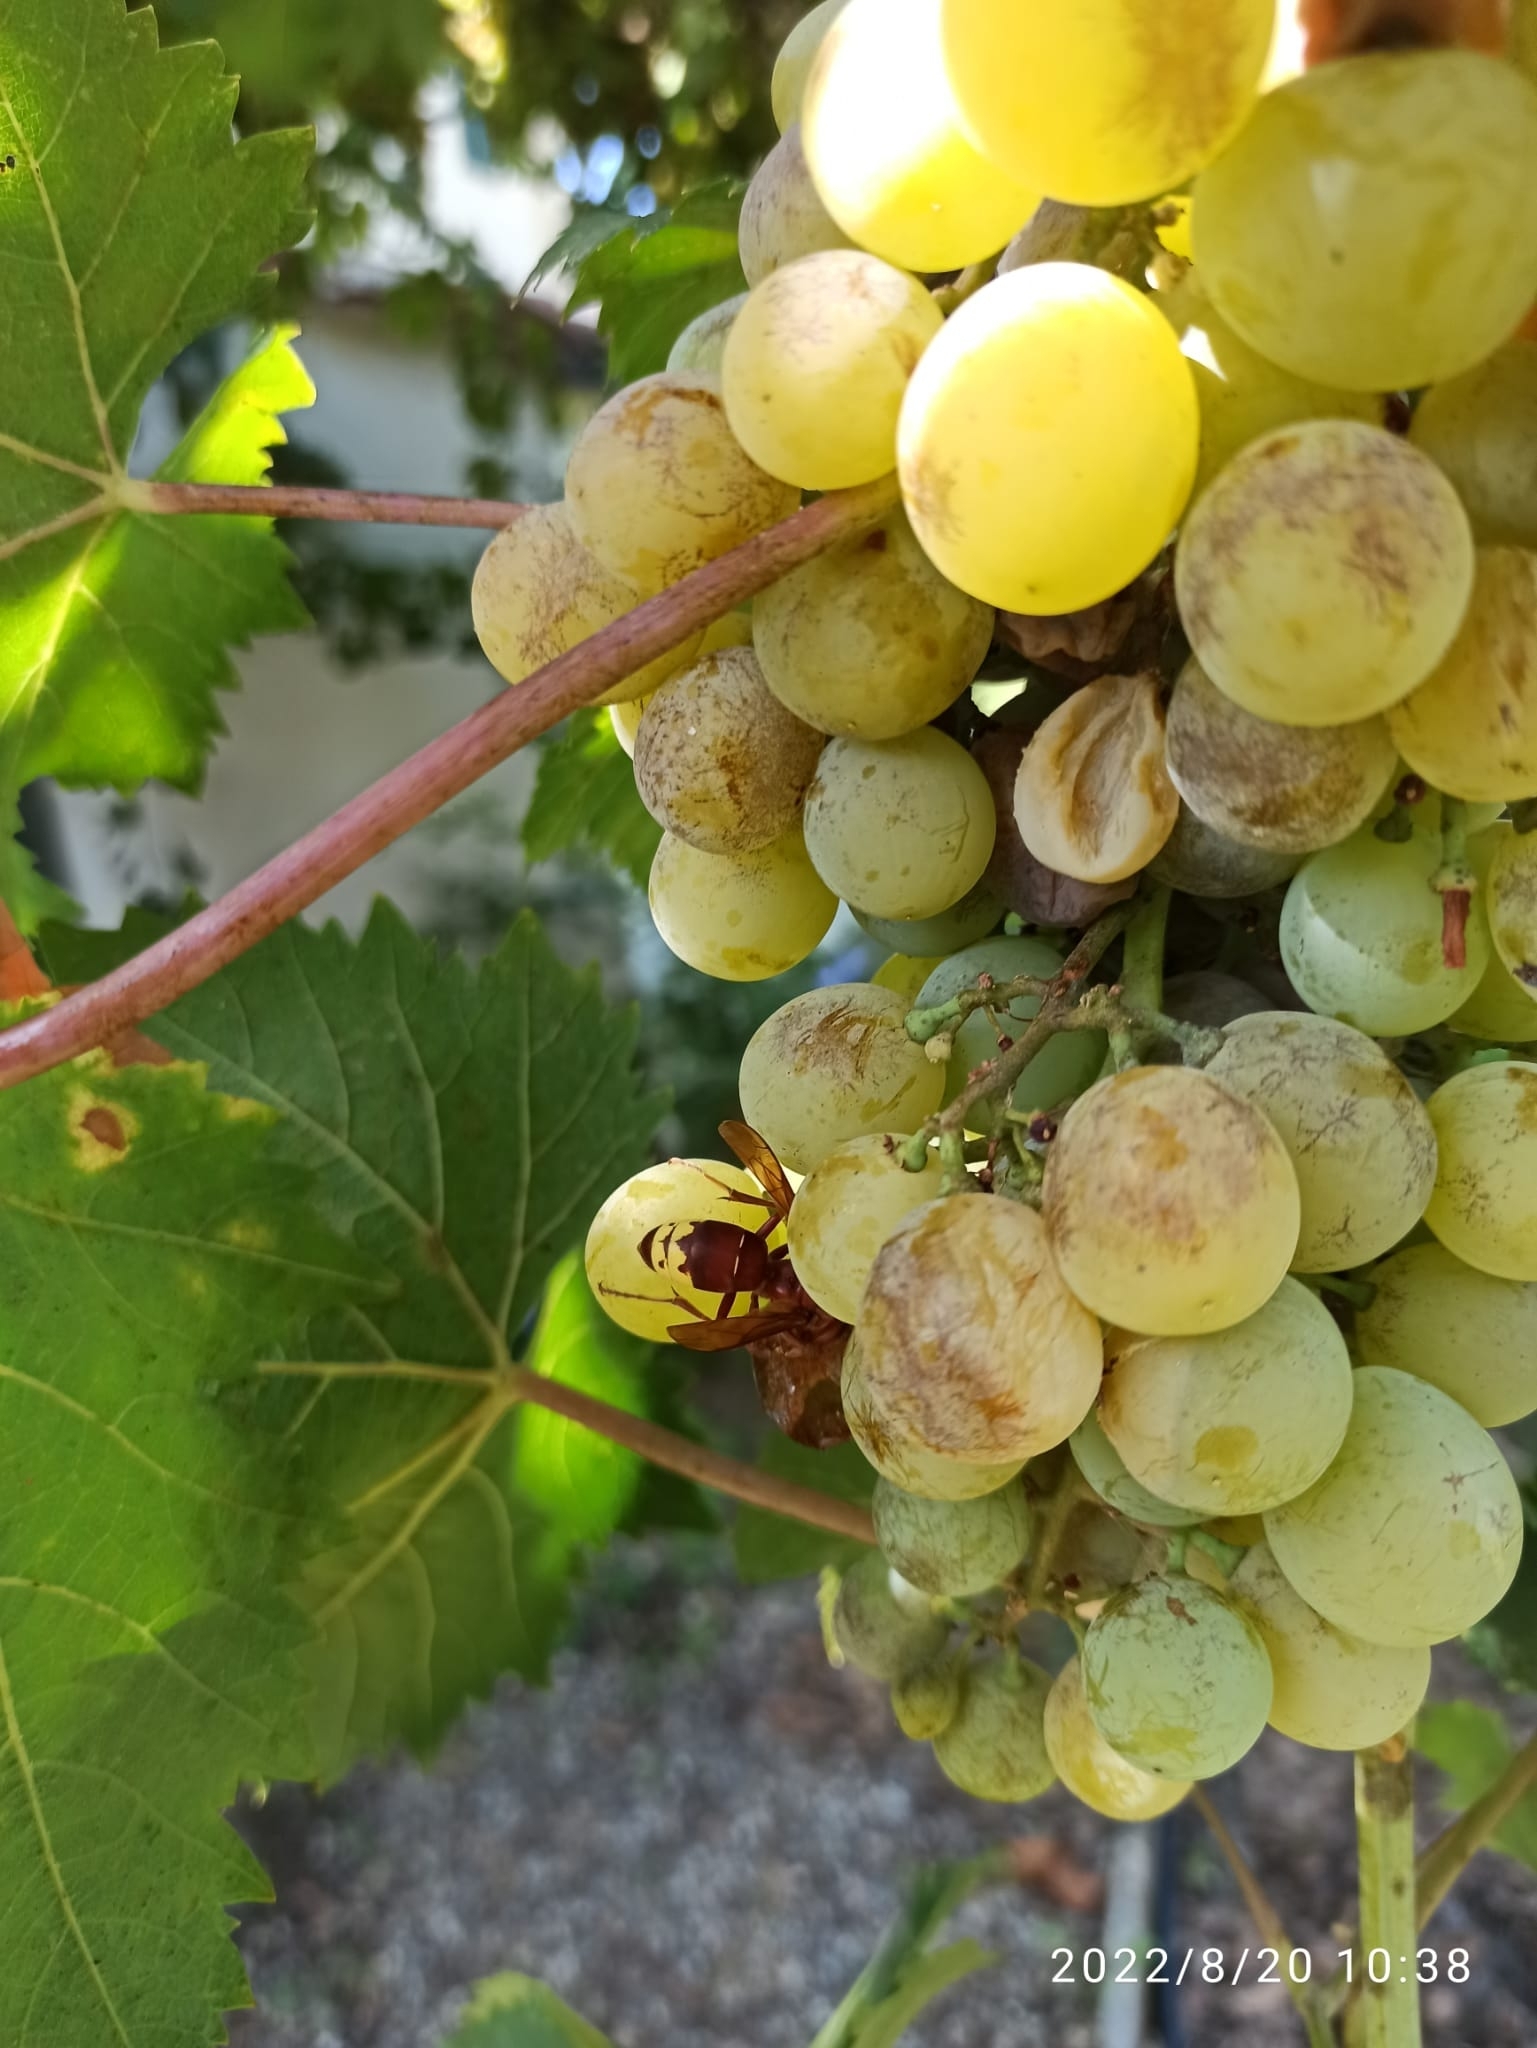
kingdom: Animalia
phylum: Arthropoda
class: Insecta
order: Hymenoptera
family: Vespidae
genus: Vespa
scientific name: Vespa orientalis
